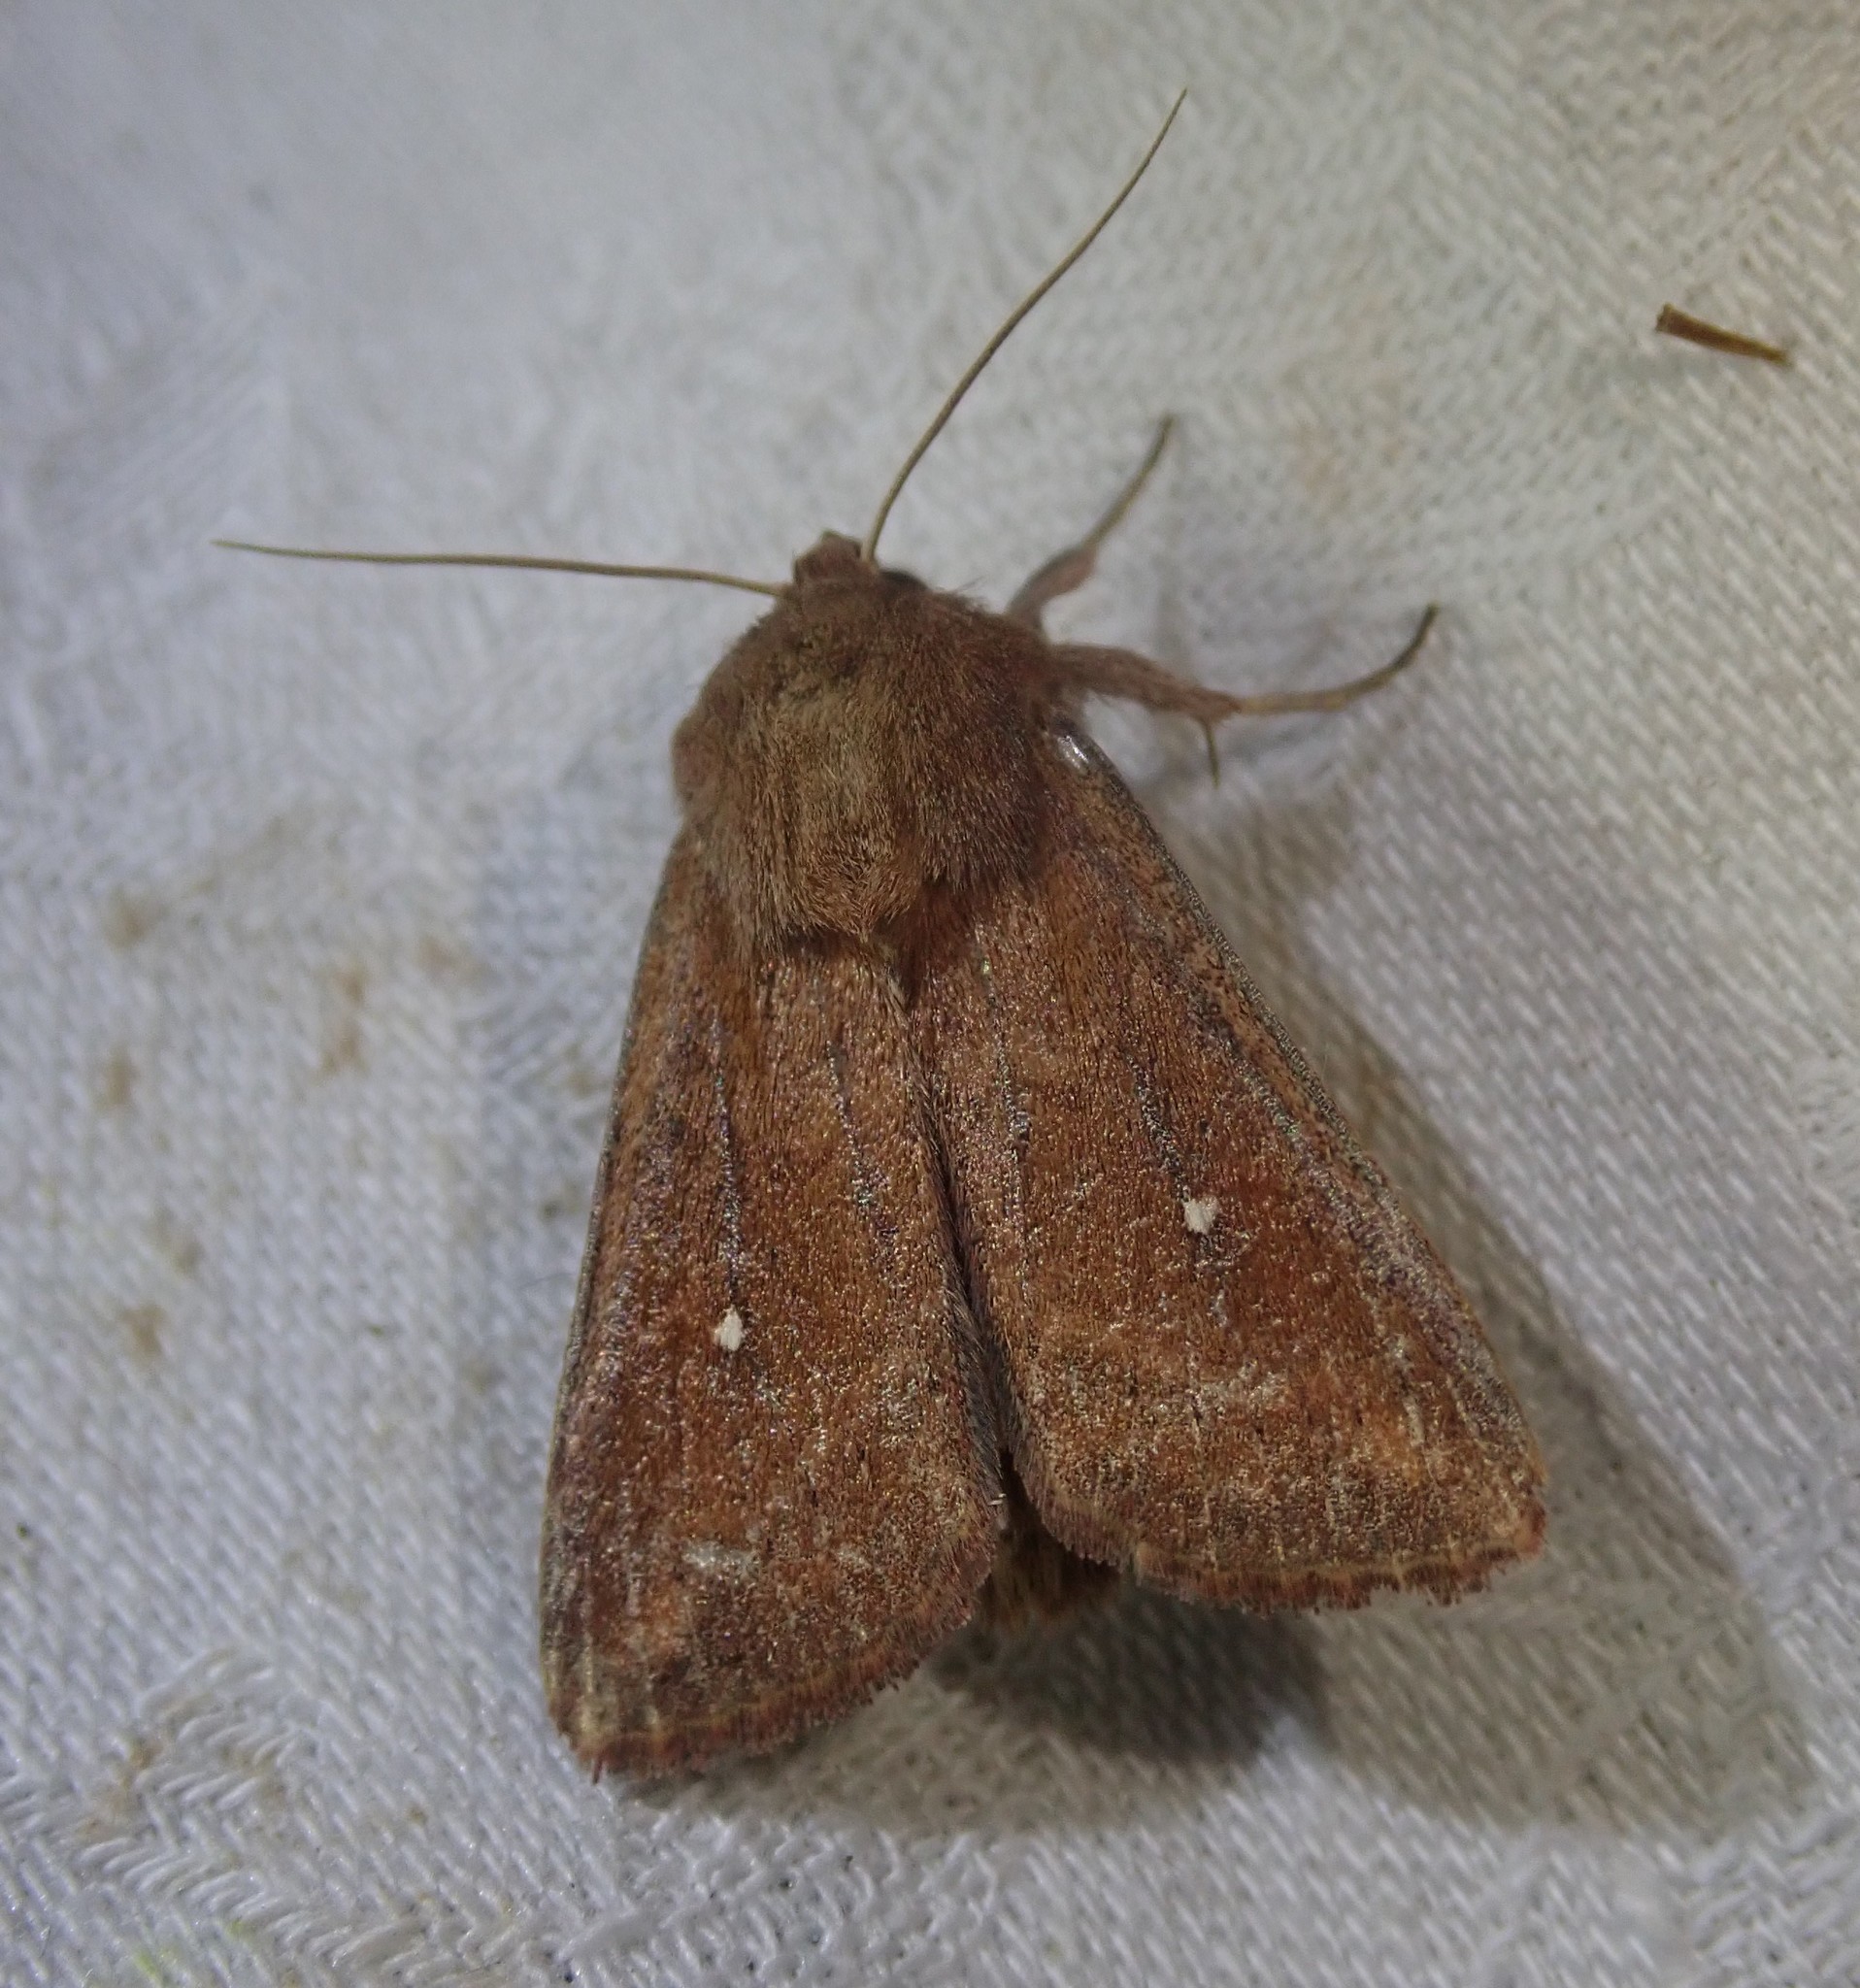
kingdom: Animalia
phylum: Arthropoda
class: Insecta
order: Lepidoptera
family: Noctuidae
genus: Mythimna
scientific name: Mythimna albipuncta
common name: White-point
